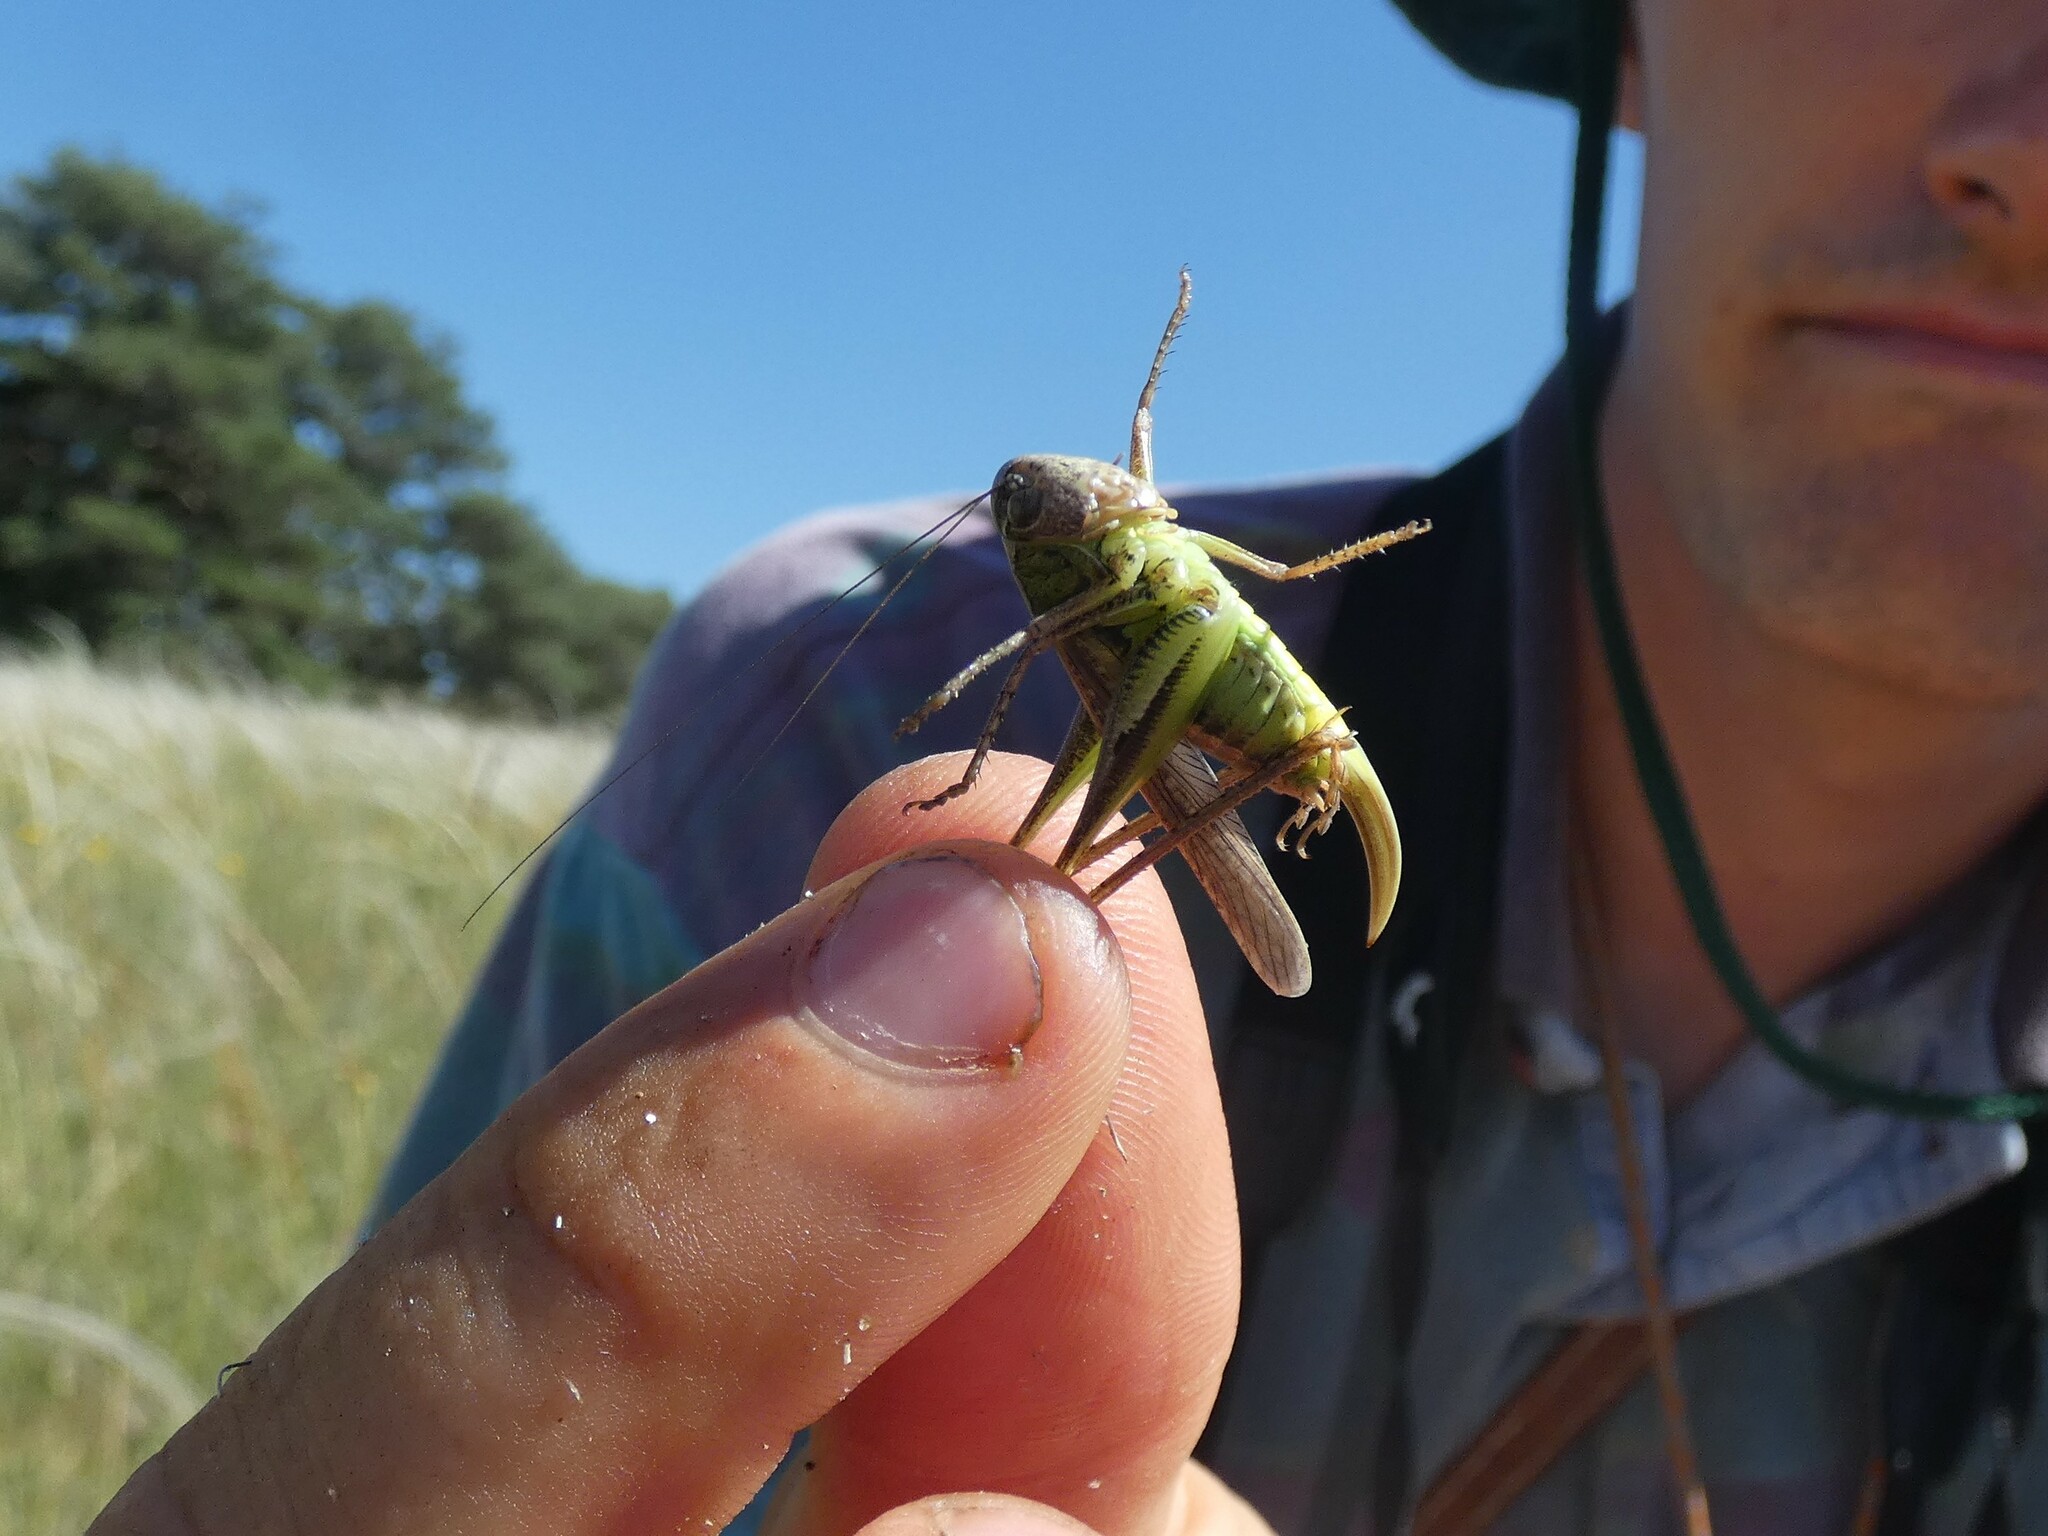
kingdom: Animalia
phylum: Arthropoda
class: Insecta
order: Orthoptera
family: Tettigoniidae
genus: Platycleis
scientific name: Platycleis albopunctata
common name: Grey bush-cricket
